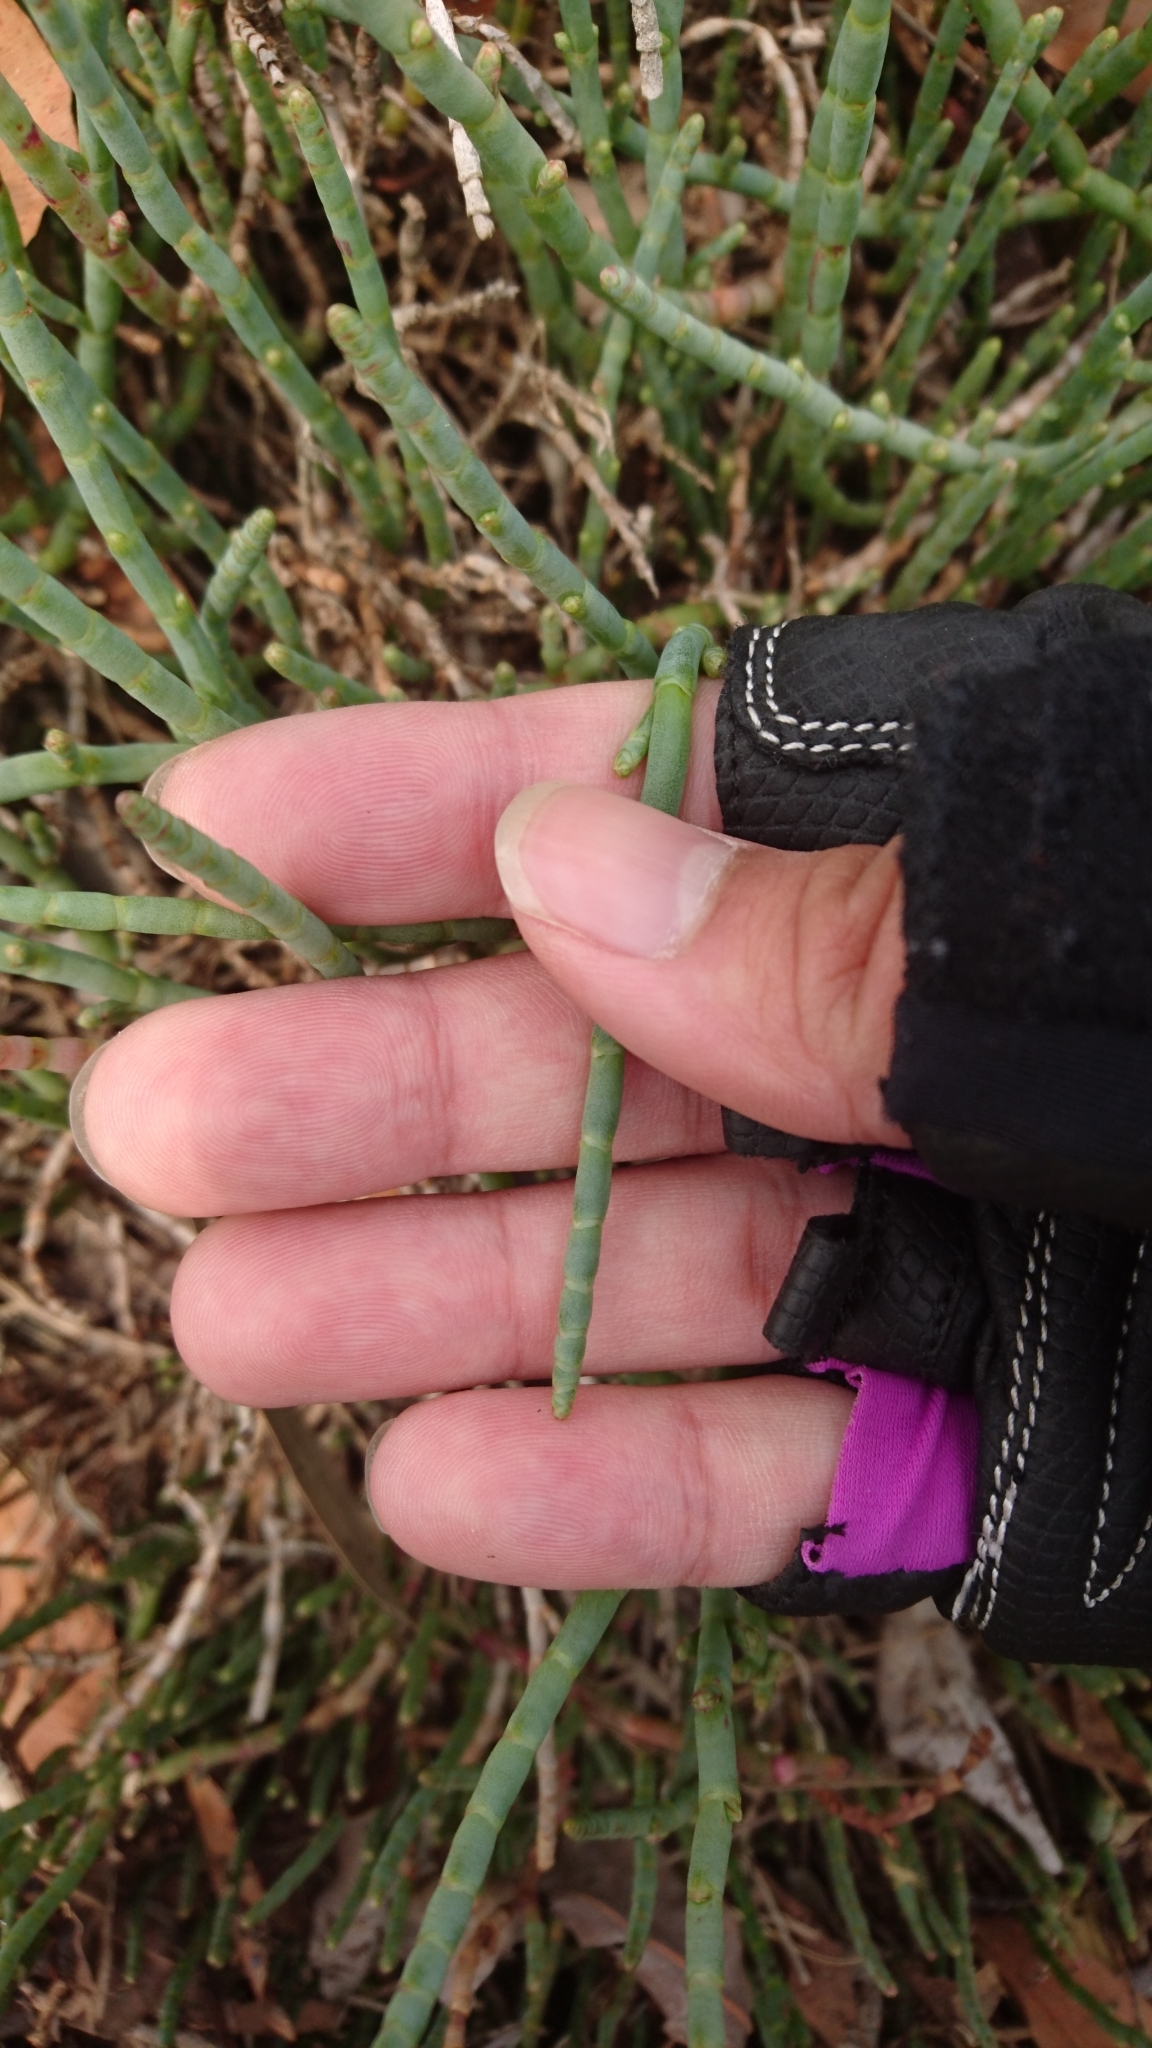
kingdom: Plantae
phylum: Tracheophyta
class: Magnoliopsida
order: Caryophyllales
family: Amaranthaceae
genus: Salicornia
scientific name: Salicornia quinqueflora
